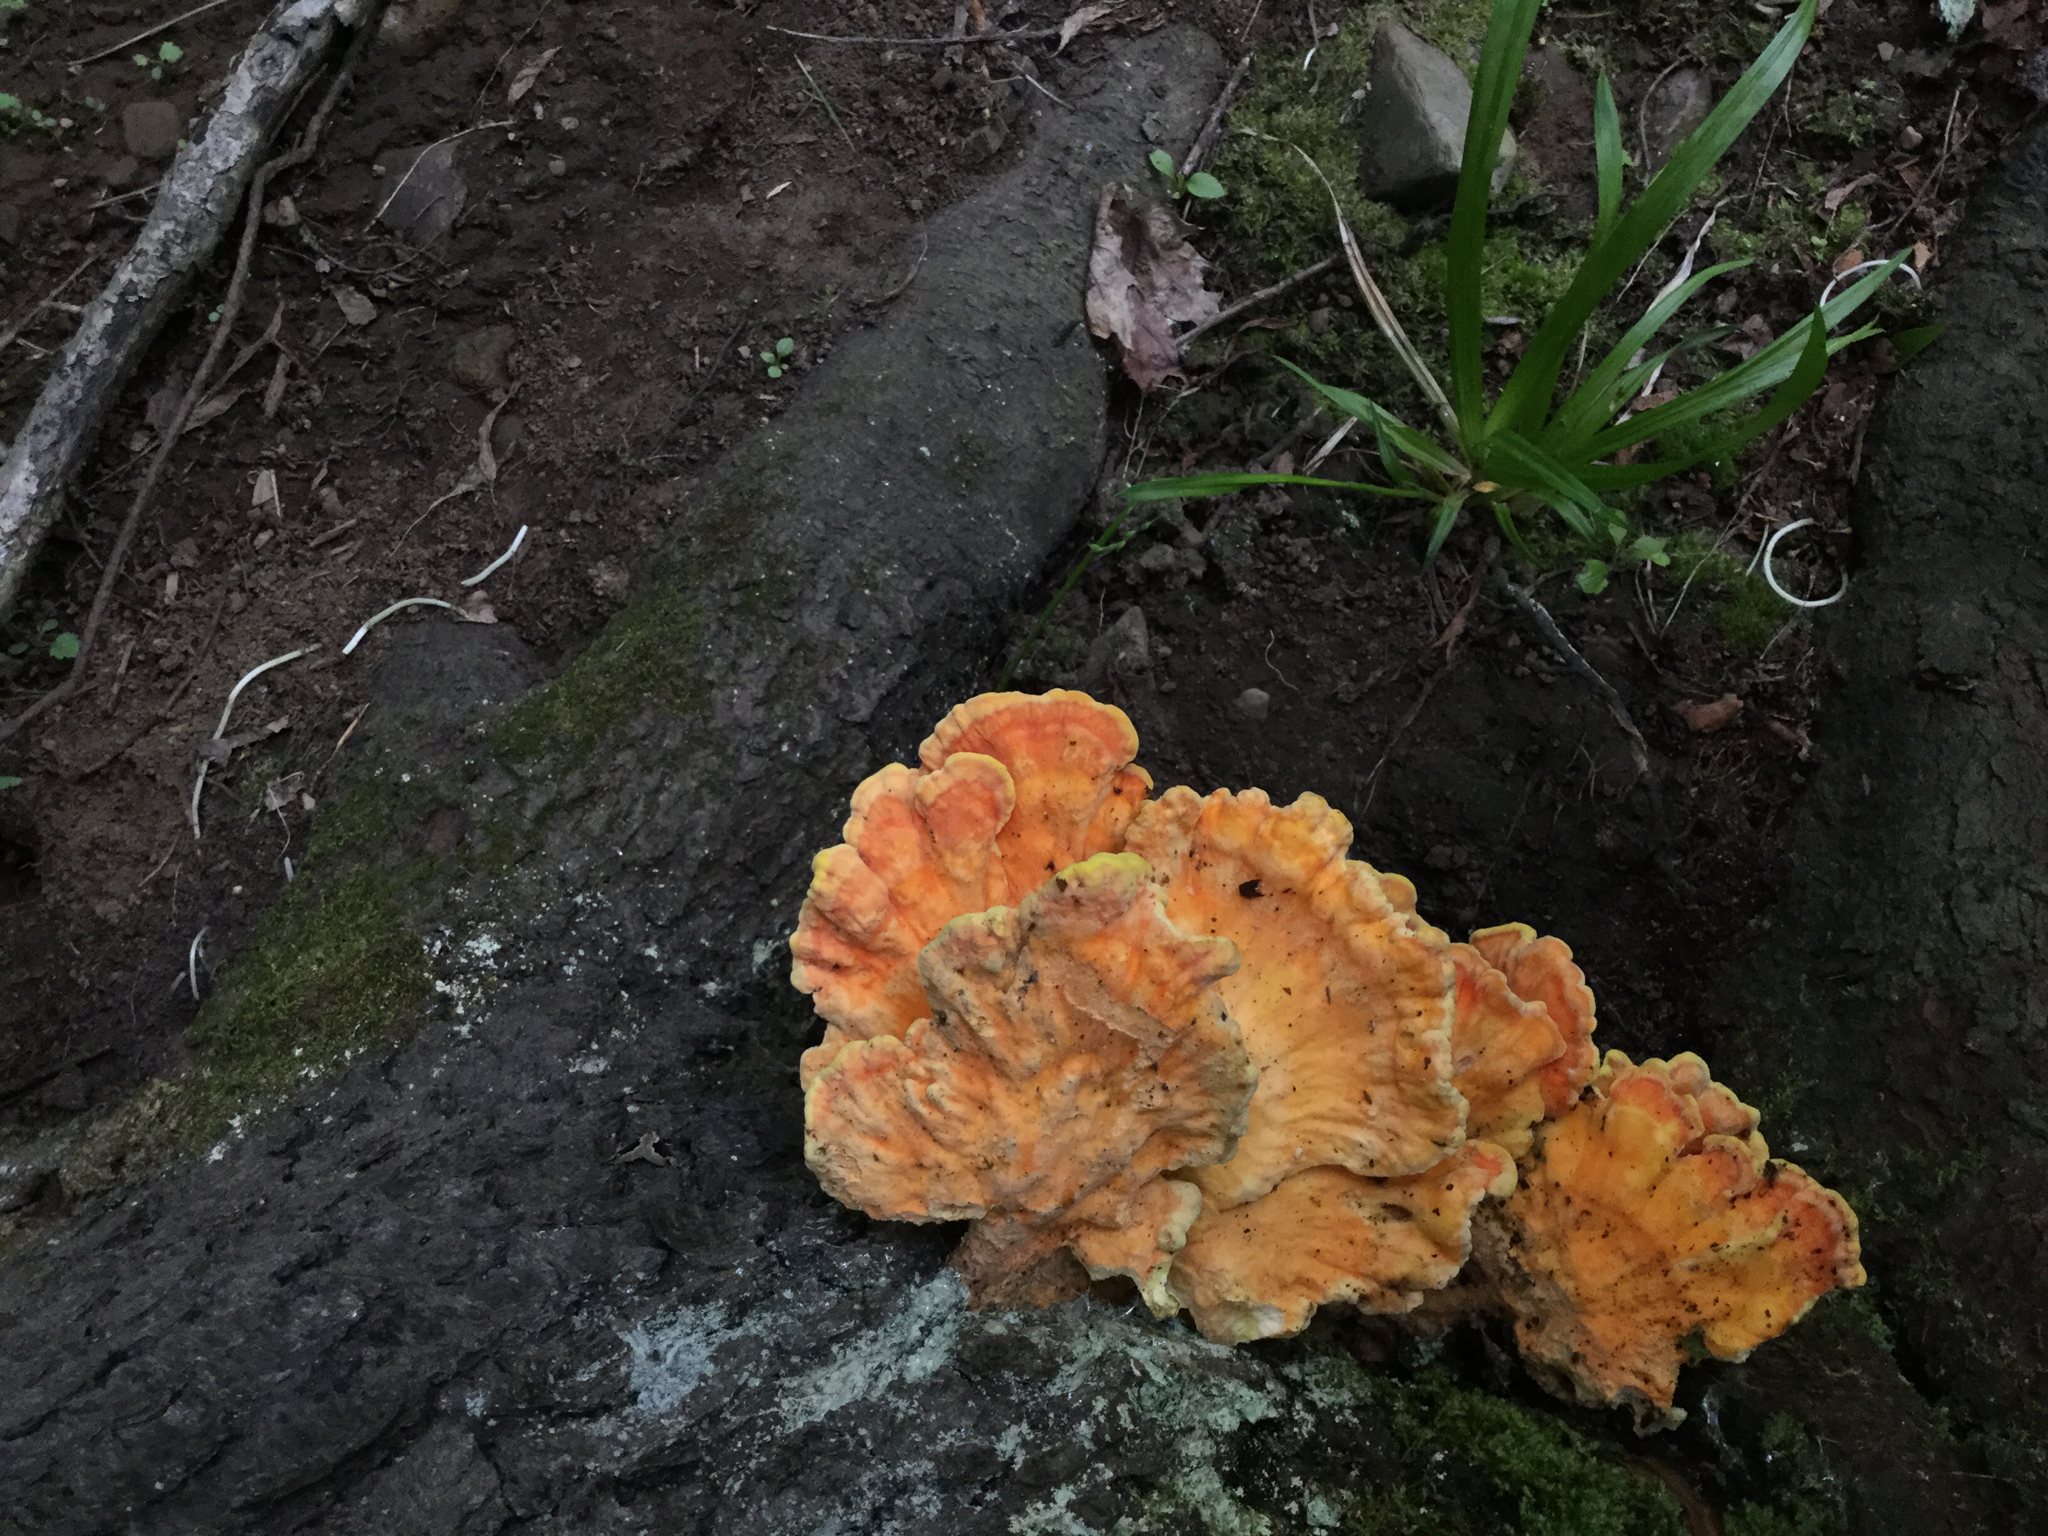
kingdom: Fungi
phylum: Basidiomycota
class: Agaricomycetes
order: Polyporales
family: Laetiporaceae
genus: Laetiporus
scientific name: Laetiporus sulphureus
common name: Chicken of the woods
